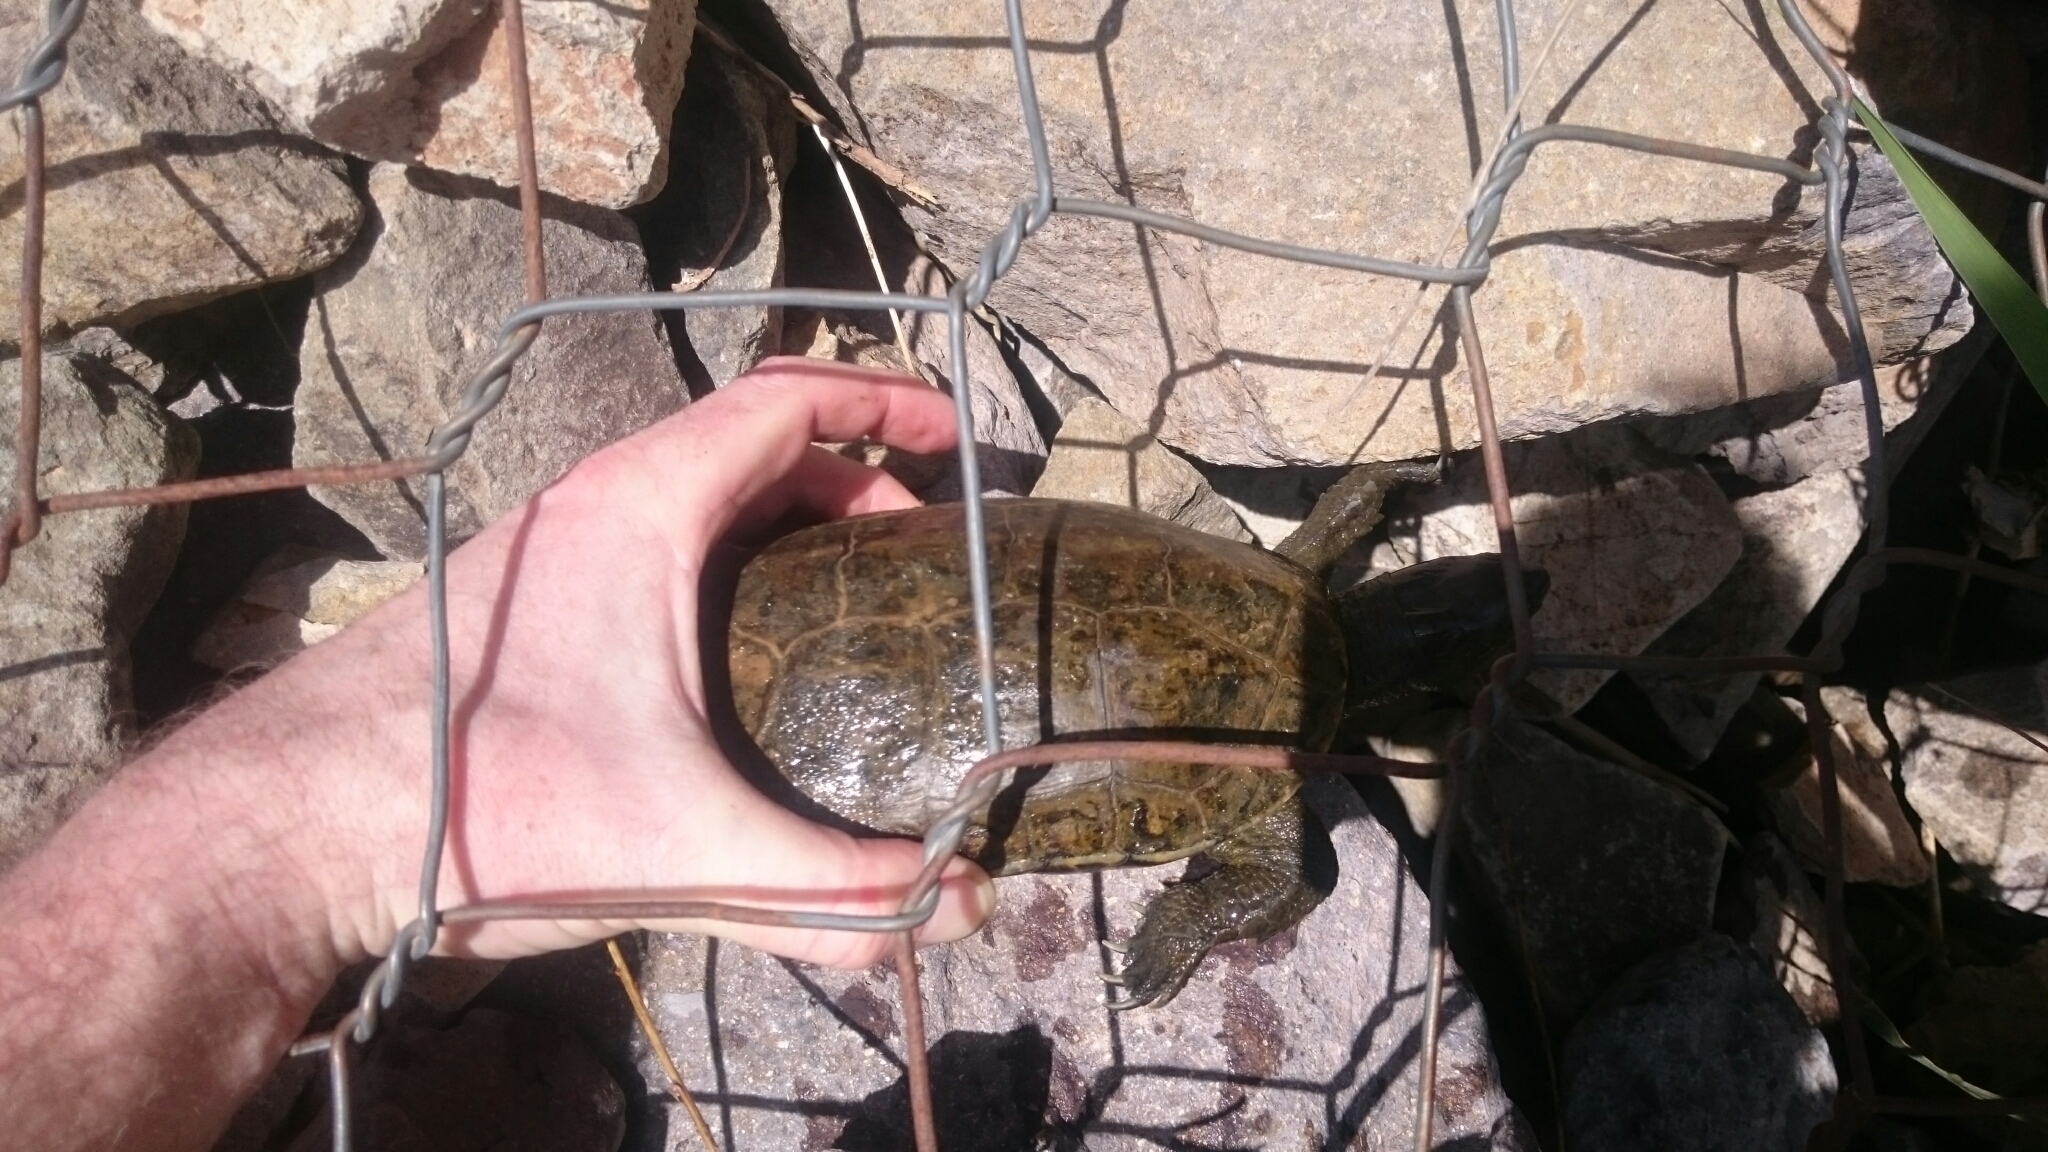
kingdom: Animalia
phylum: Chordata
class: Testudines
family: Geoemydidae
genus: Mauremys
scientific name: Mauremys leprosa
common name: Mediterranean pond turtle
